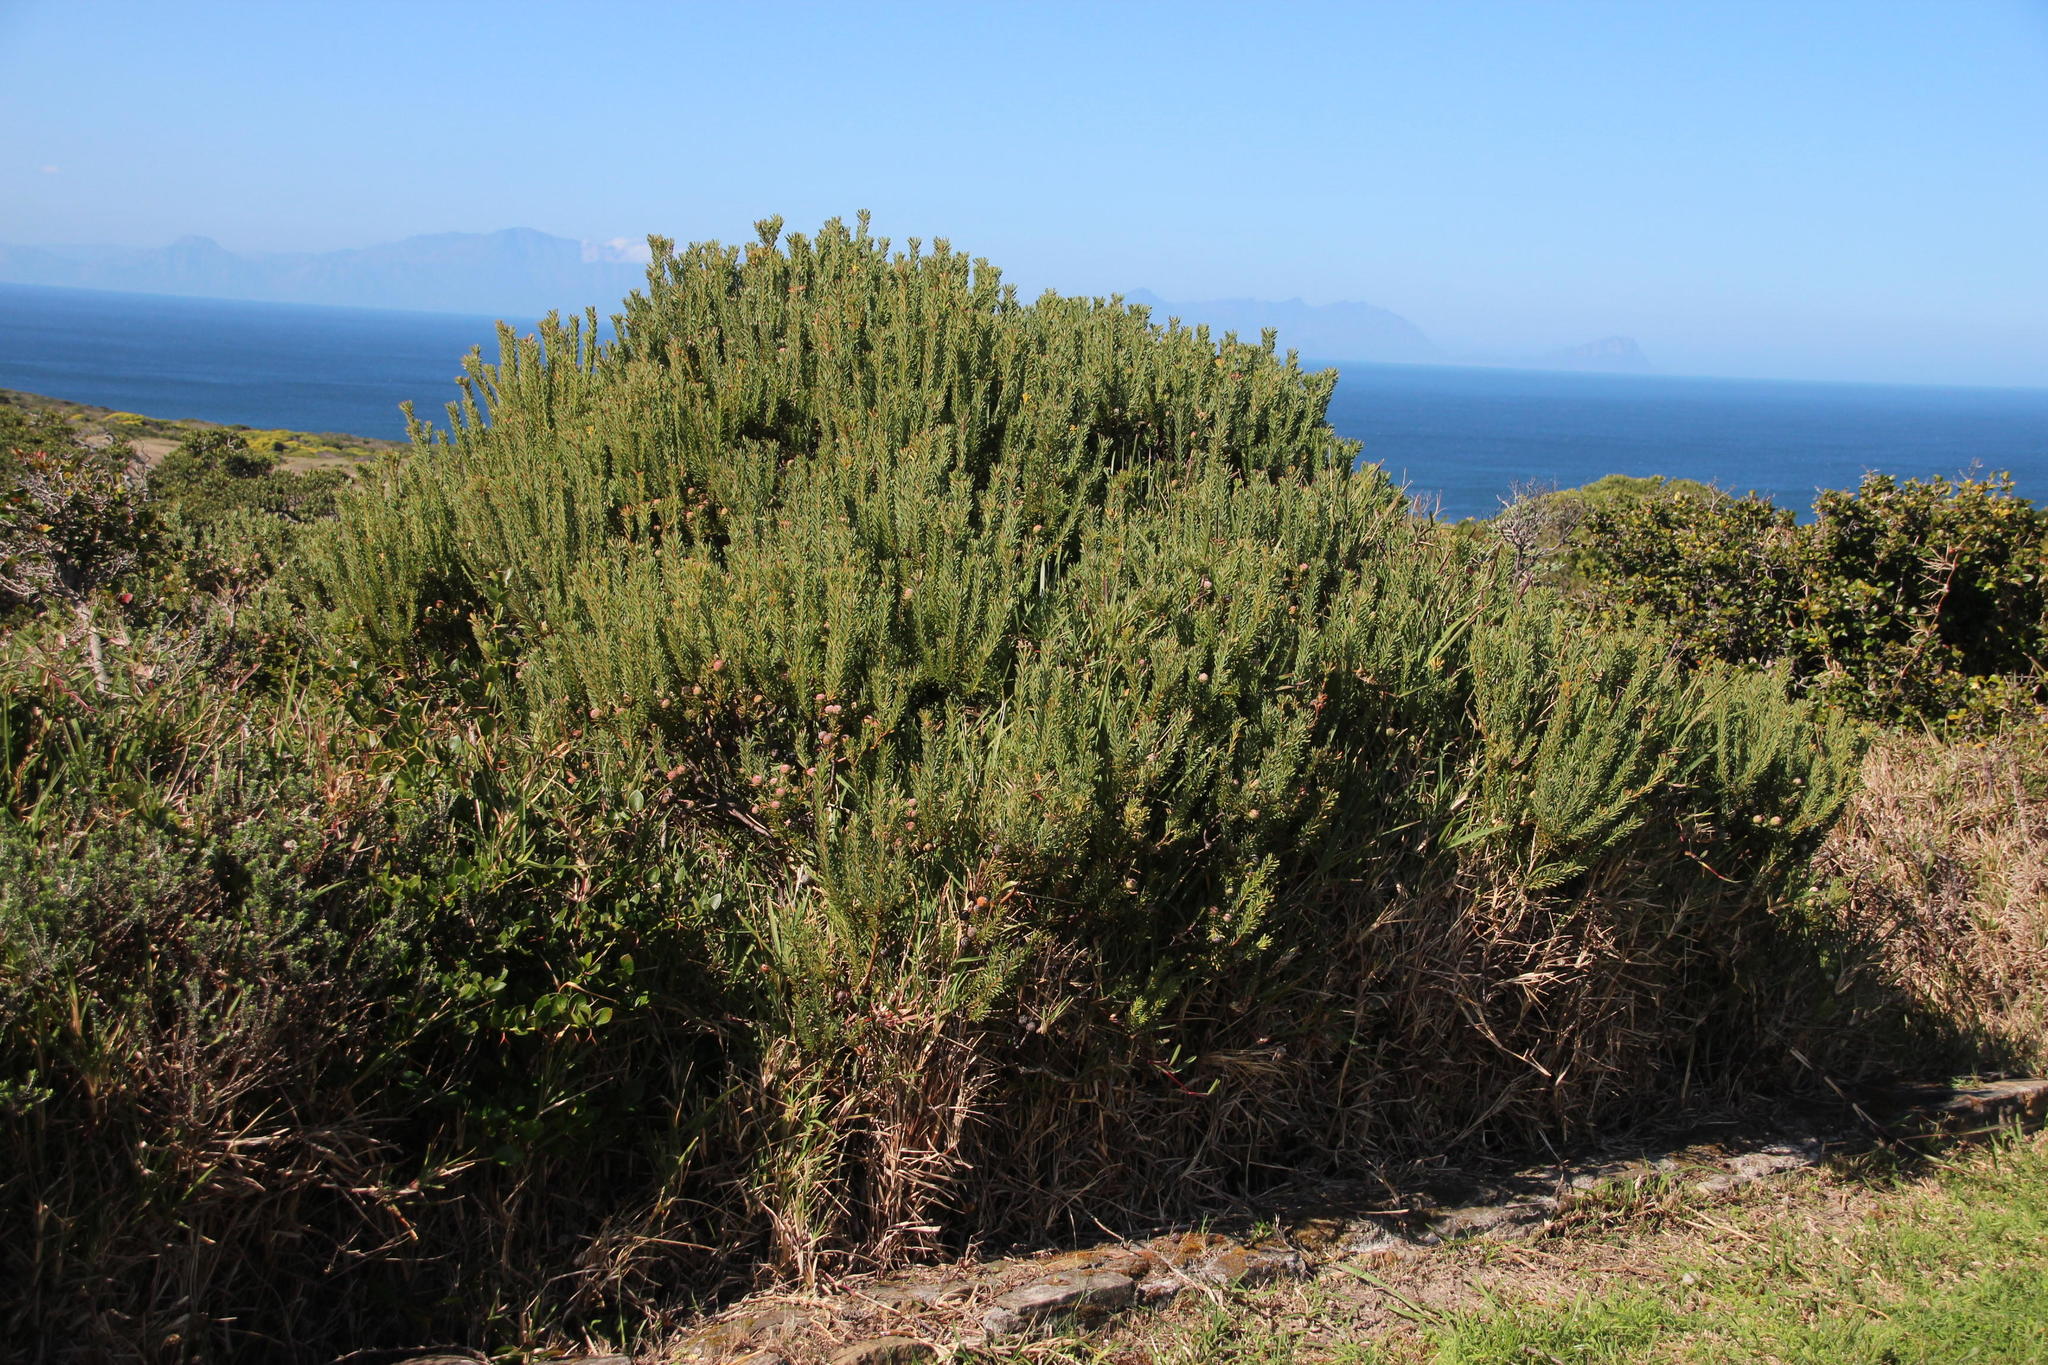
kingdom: Plantae
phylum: Tracheophyta
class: Magnoliopsida
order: Proteales
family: Proteaceae
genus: Leucadendron
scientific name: Leucadendron linifolium
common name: Line-leaf conebush
